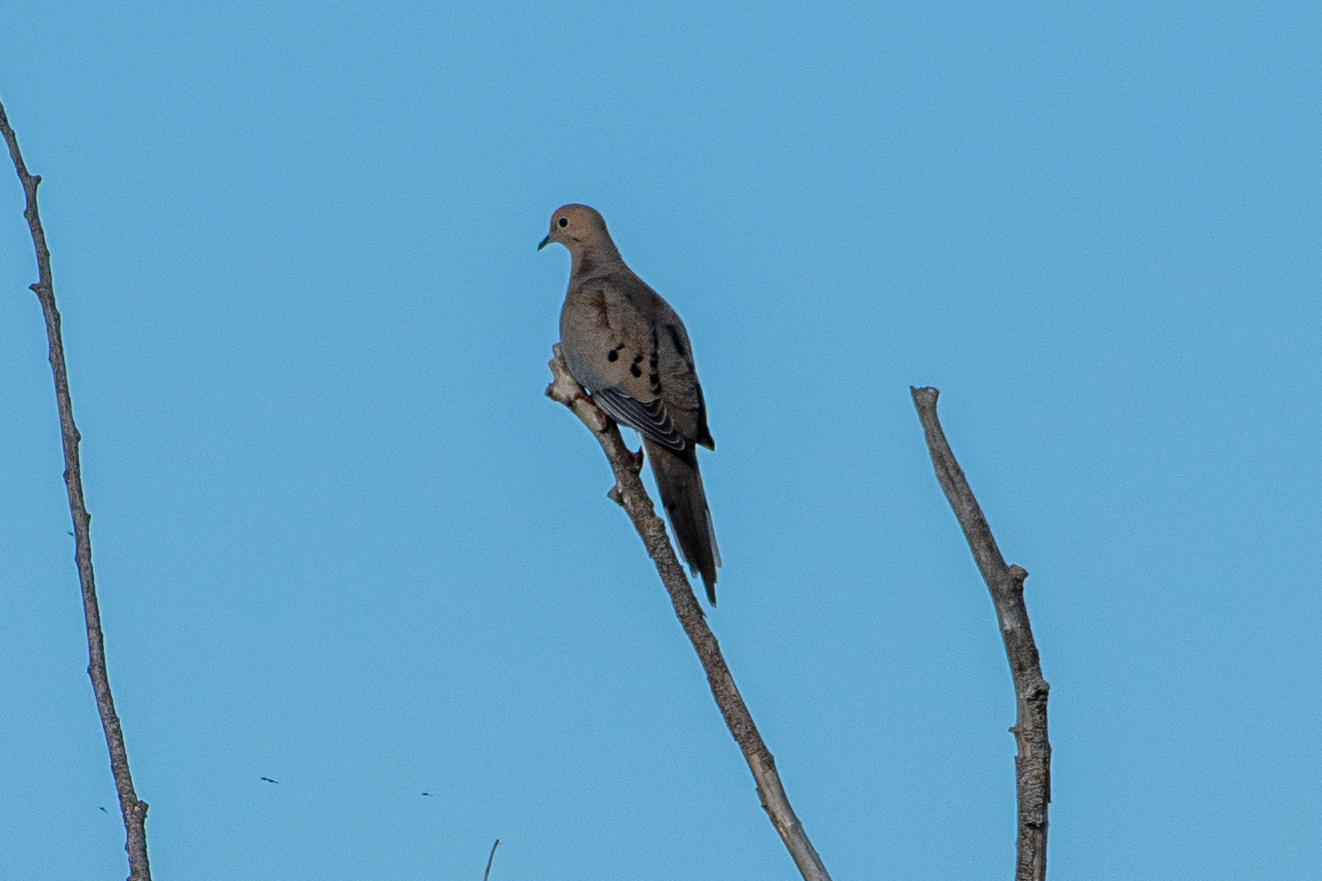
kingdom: Animalia
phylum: Chordata
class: Aves
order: Columbiformes
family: Columbidae
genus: Zenaida
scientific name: Zenaida macroura
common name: Mourning dove
